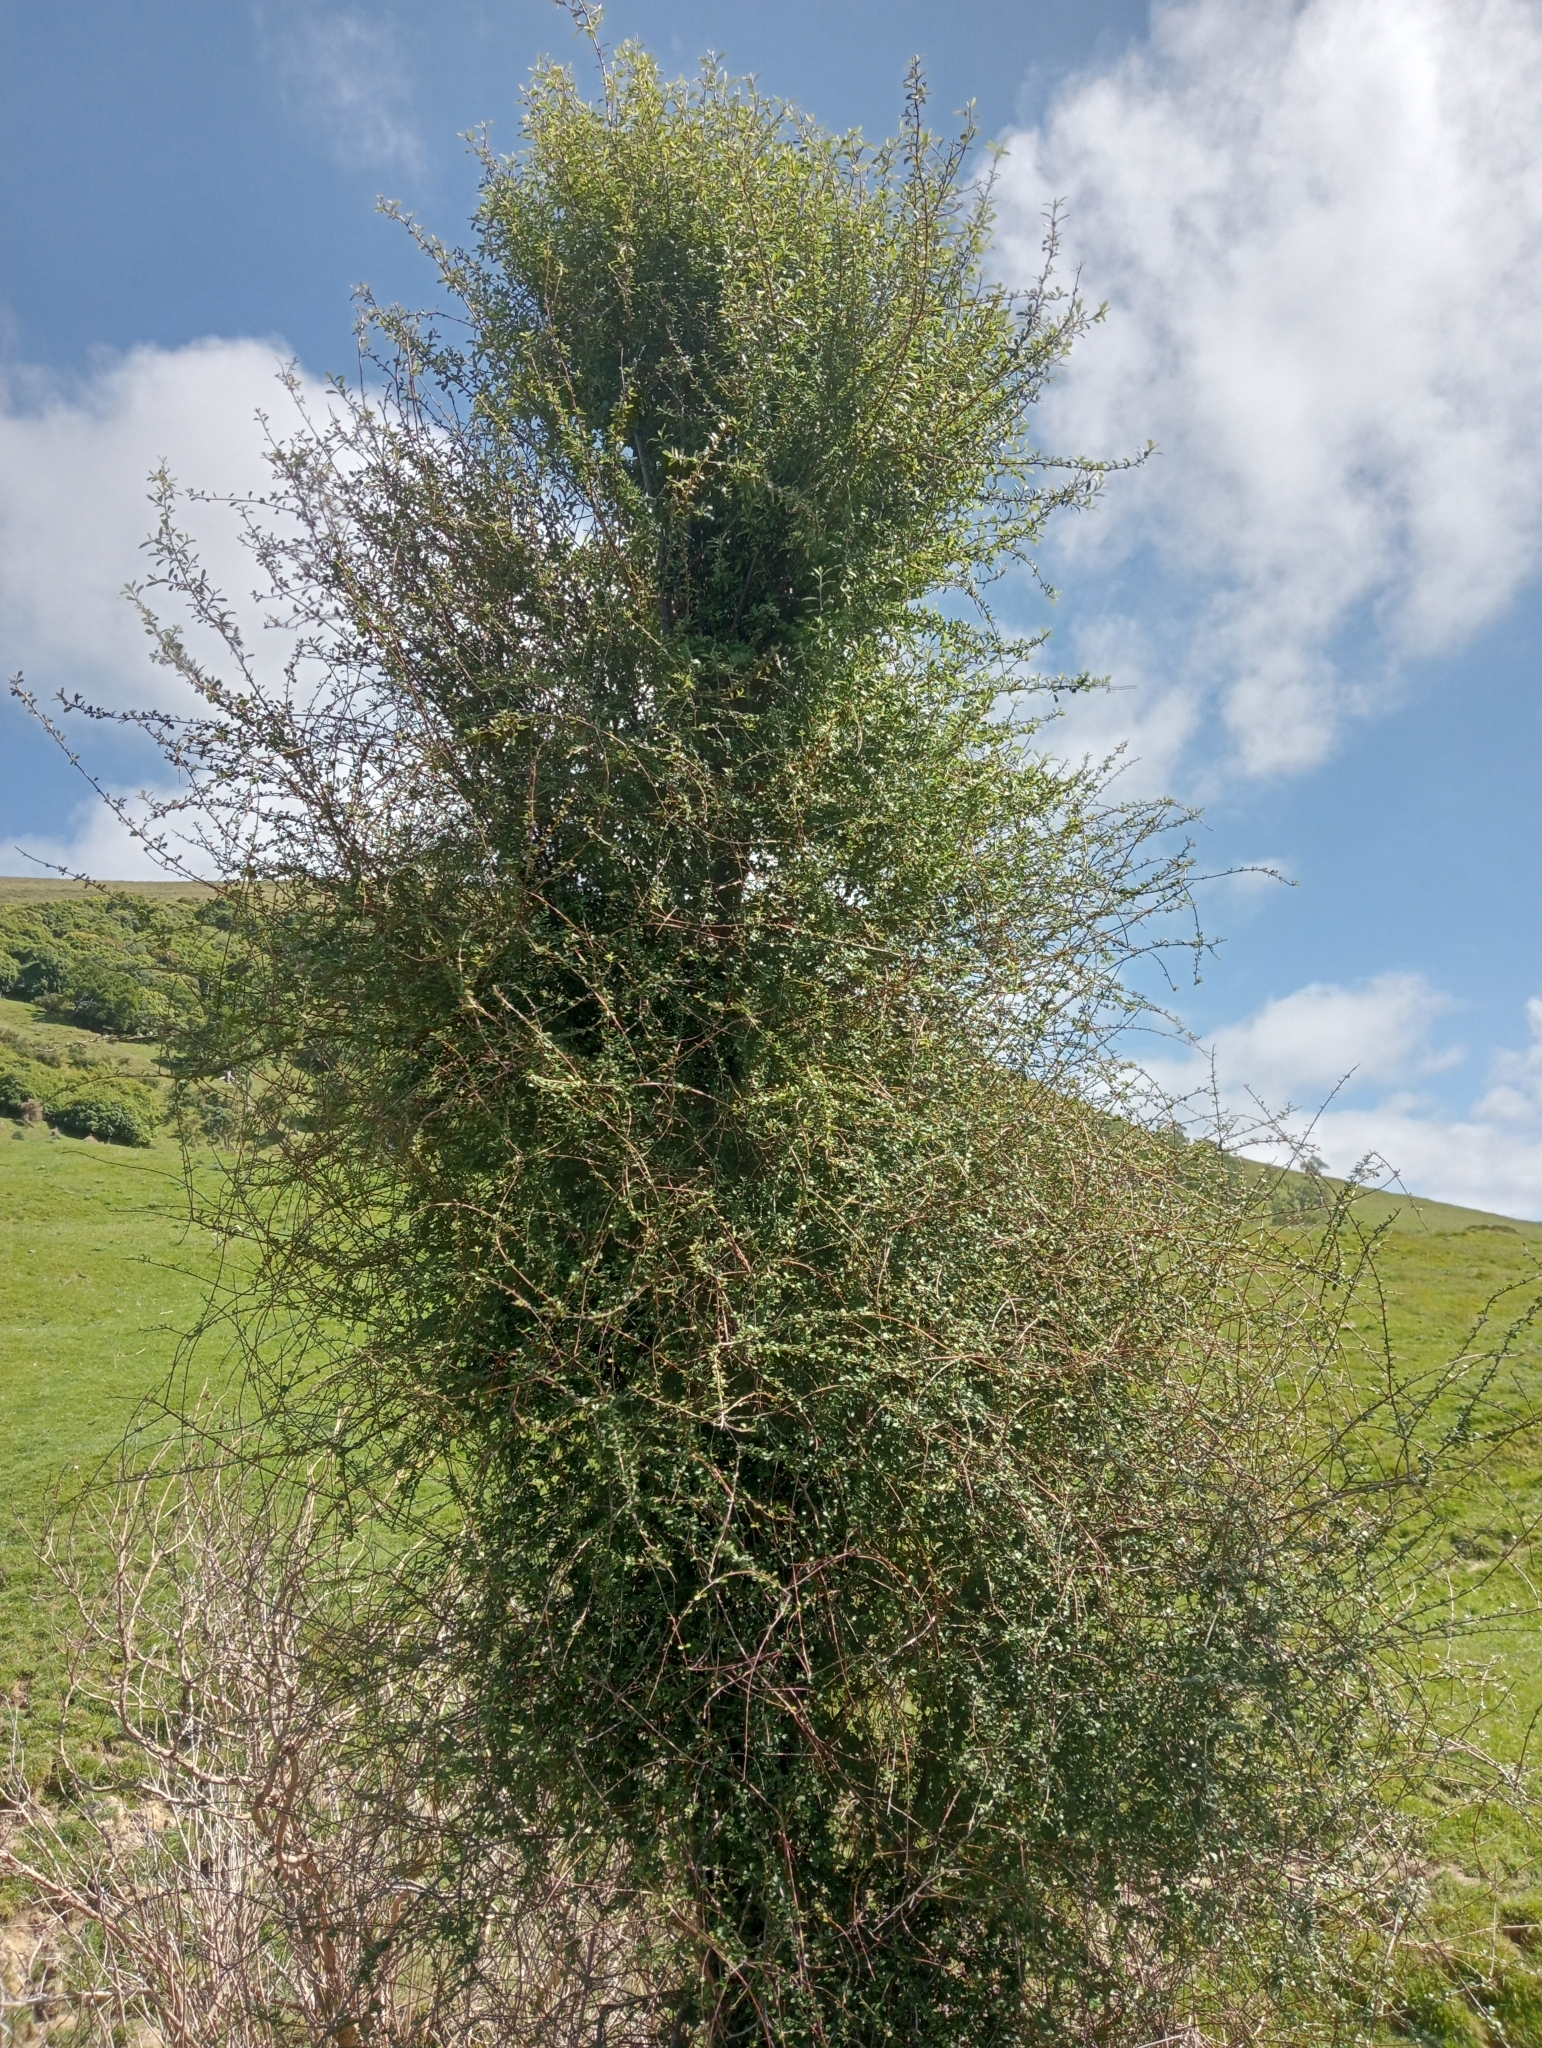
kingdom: Plantae
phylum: Tracheophyta
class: Magnoliopsida
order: Malvales
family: Malvaceae
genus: Hoheria
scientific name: Hoheria angustifolia
